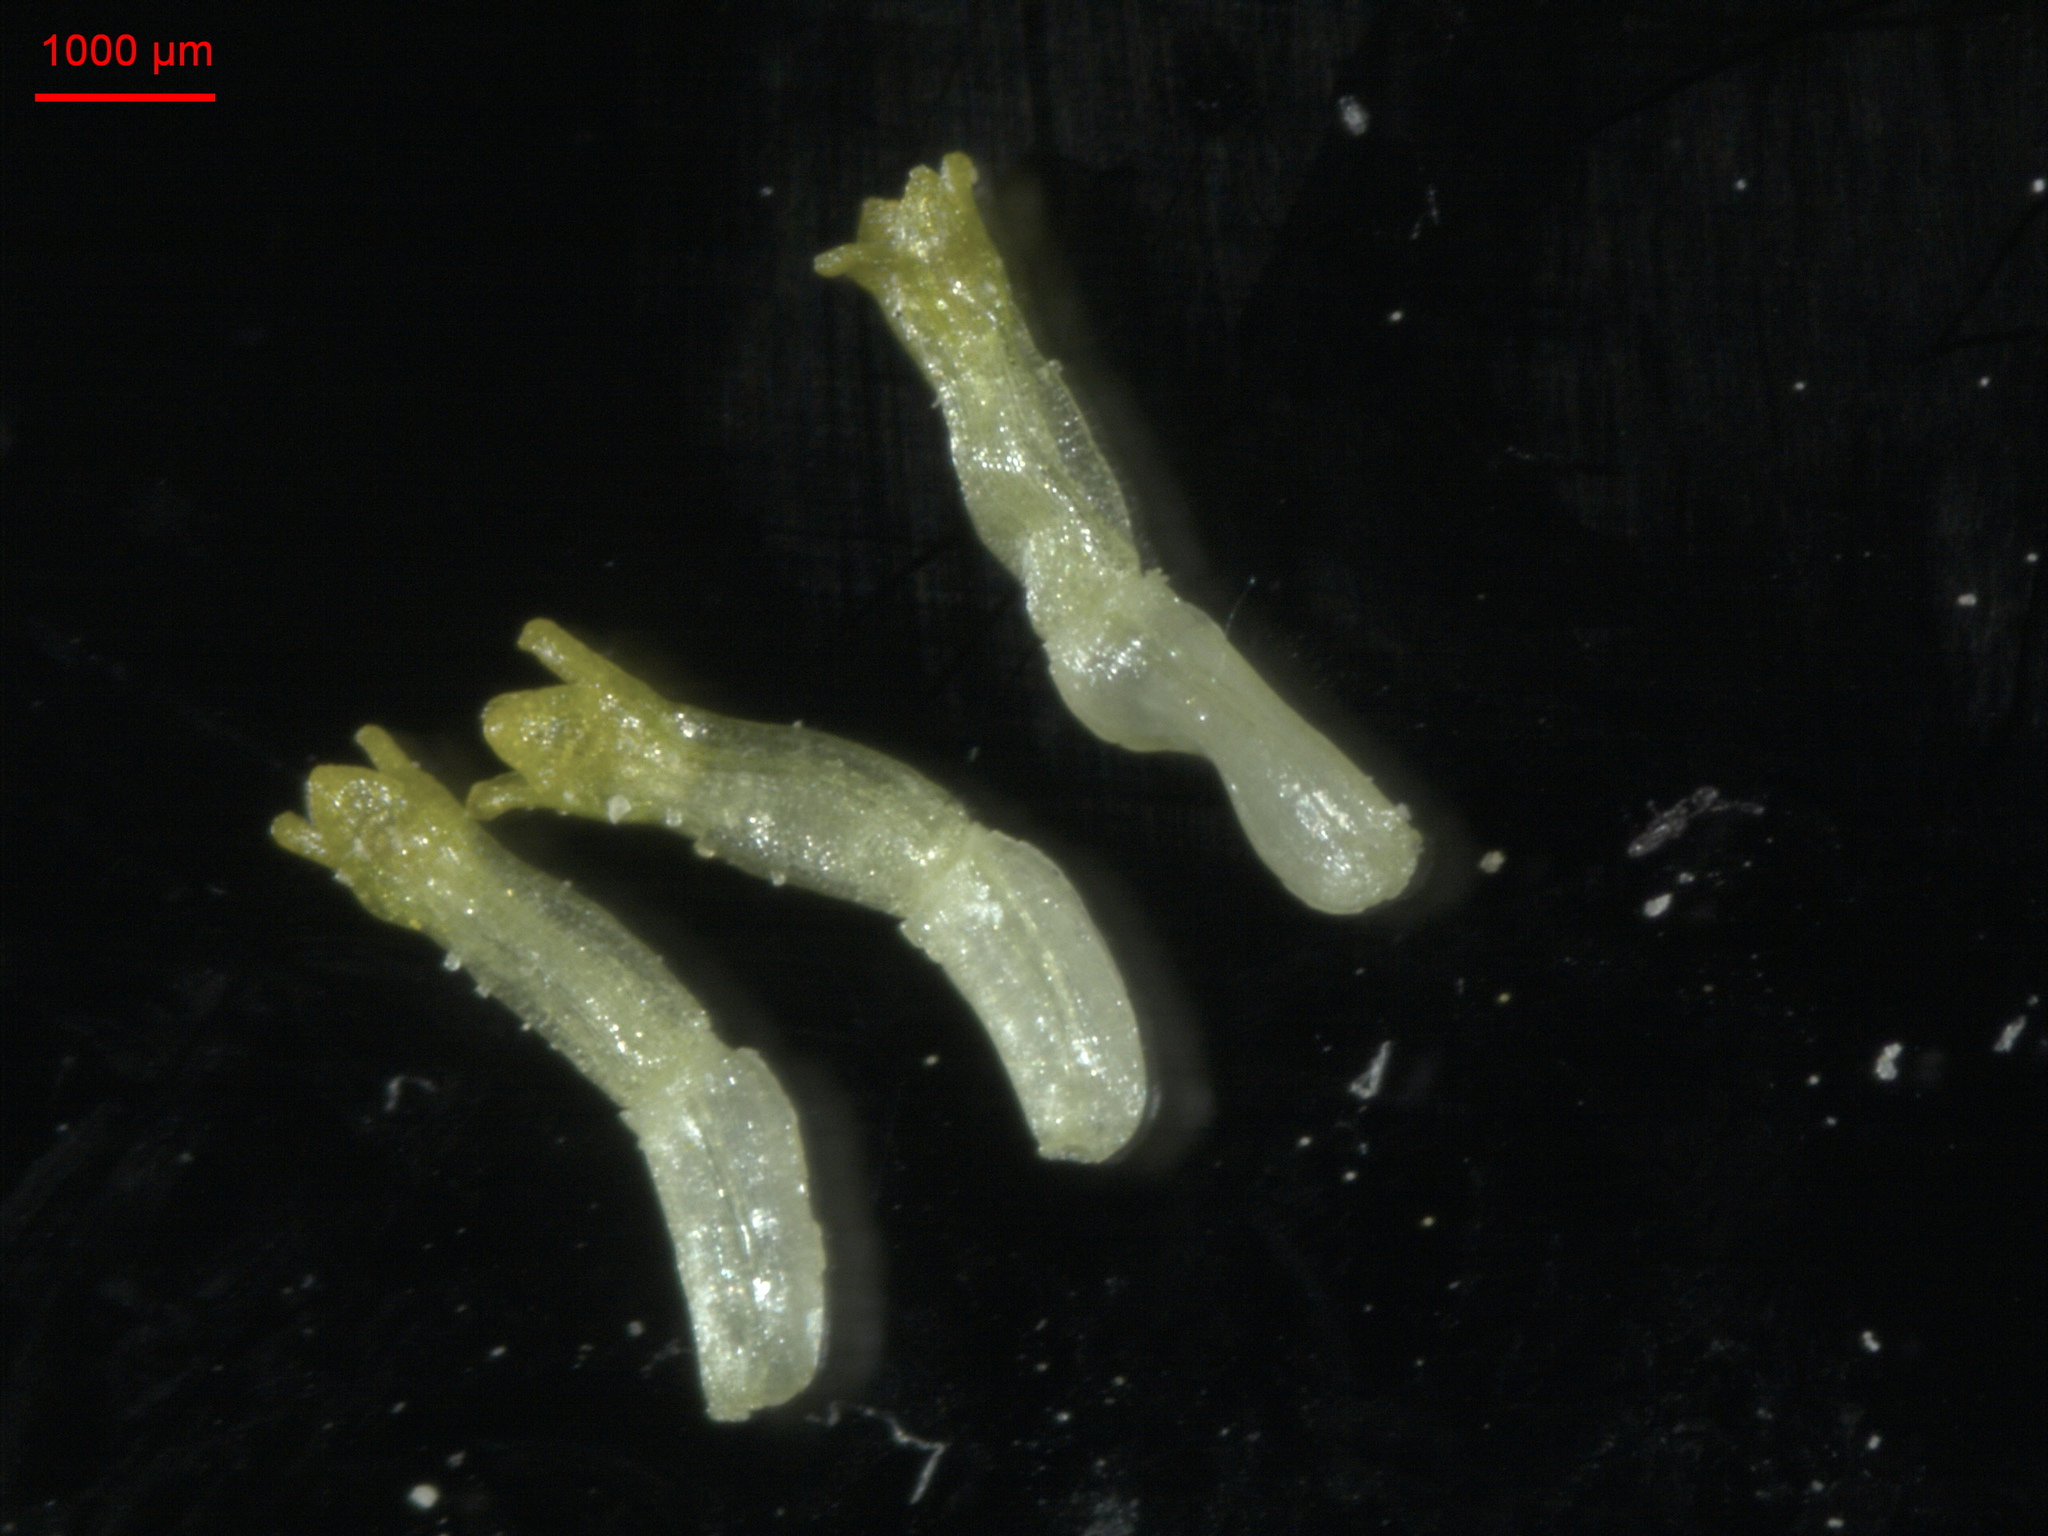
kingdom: Plantae
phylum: Tracheophyta
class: Magnoliopsida
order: Asterales
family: Asteraceae
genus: Matricaria
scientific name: Matricaria discoidea
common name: Disc mayweed
